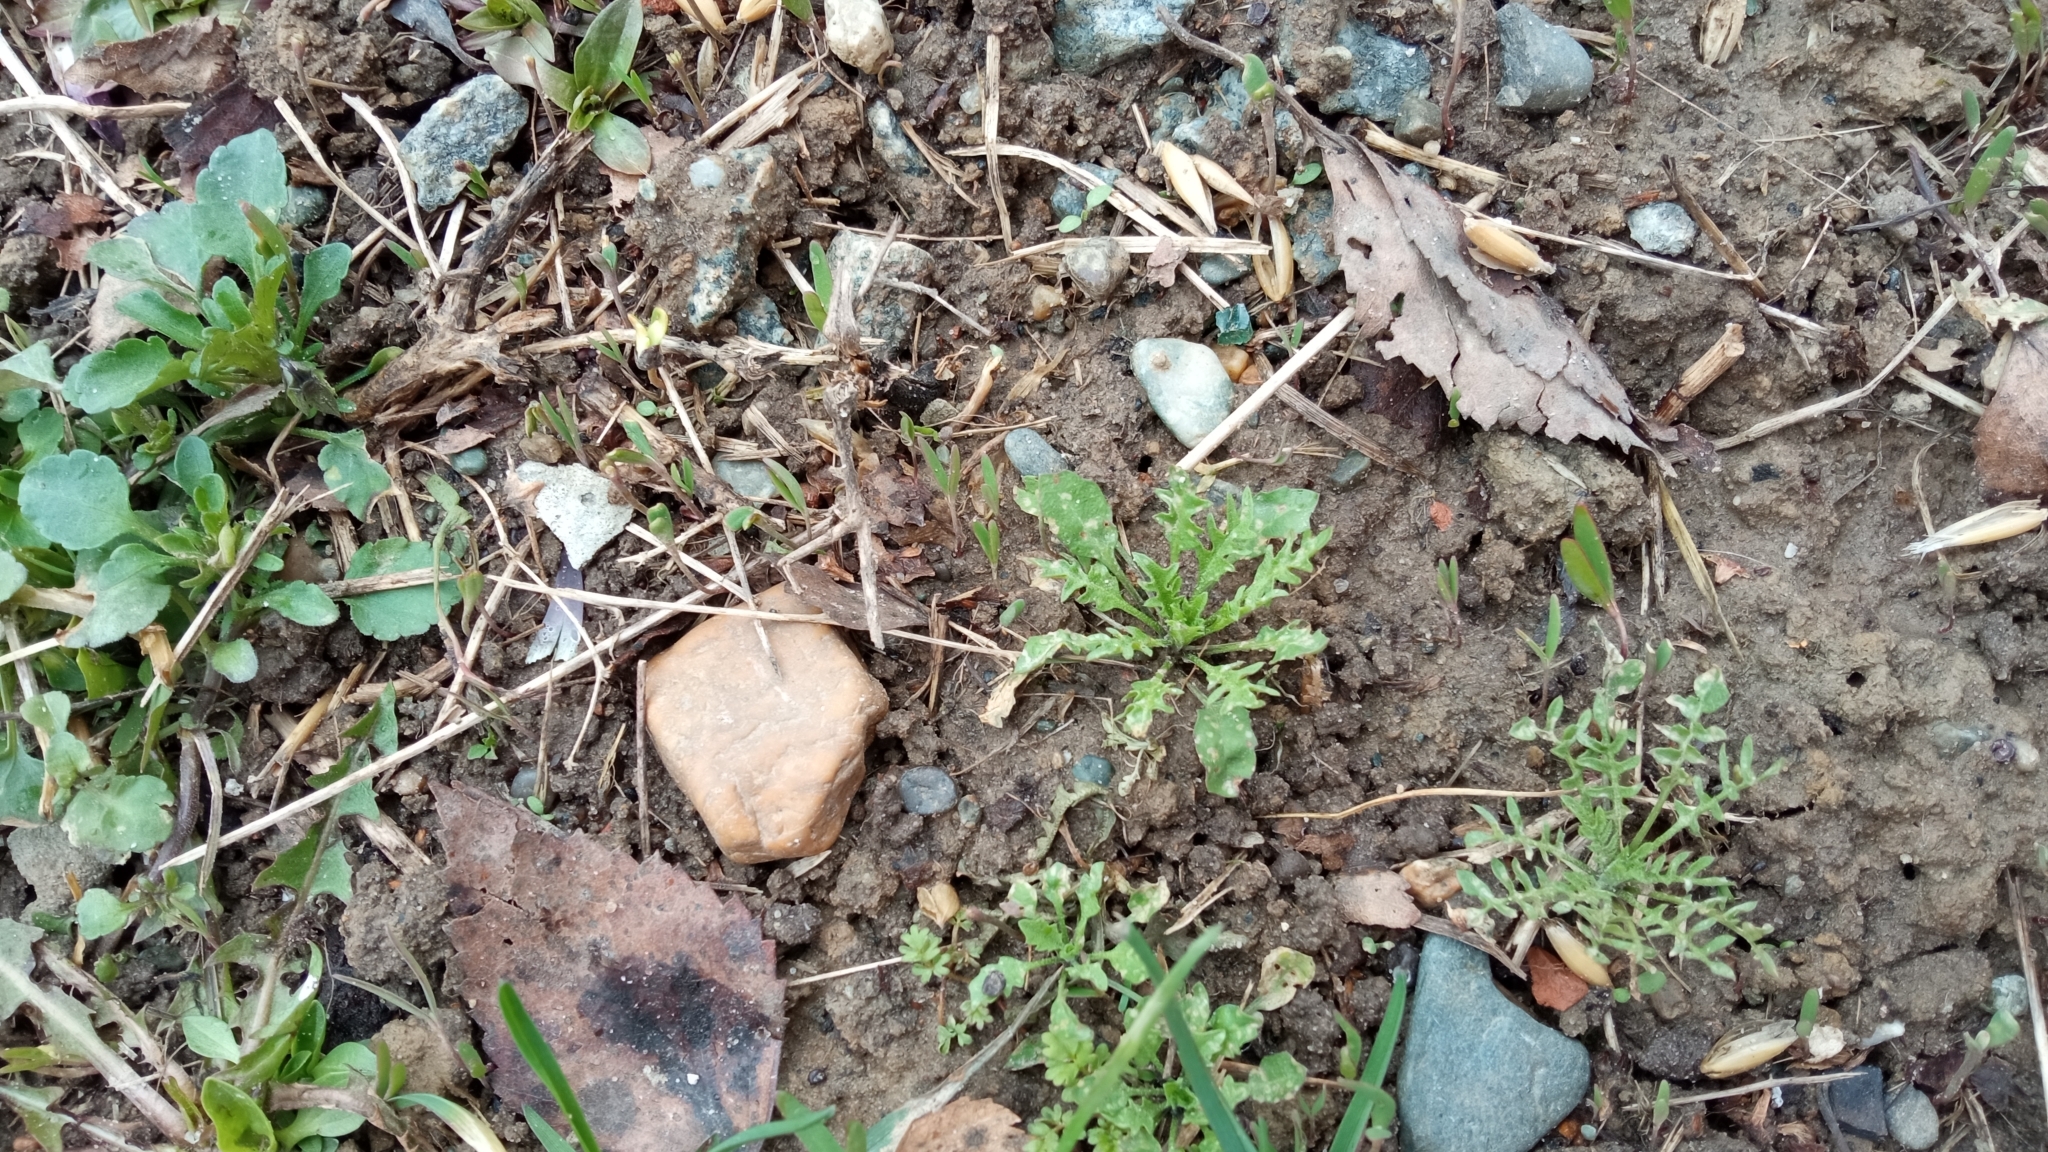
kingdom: Plantae
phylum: Tracheophyta
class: Magnoliopsida
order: Brassicales
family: Brassicaceae
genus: Capsella
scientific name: Capsella bursa-pastoris
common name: Shepherd's purse
